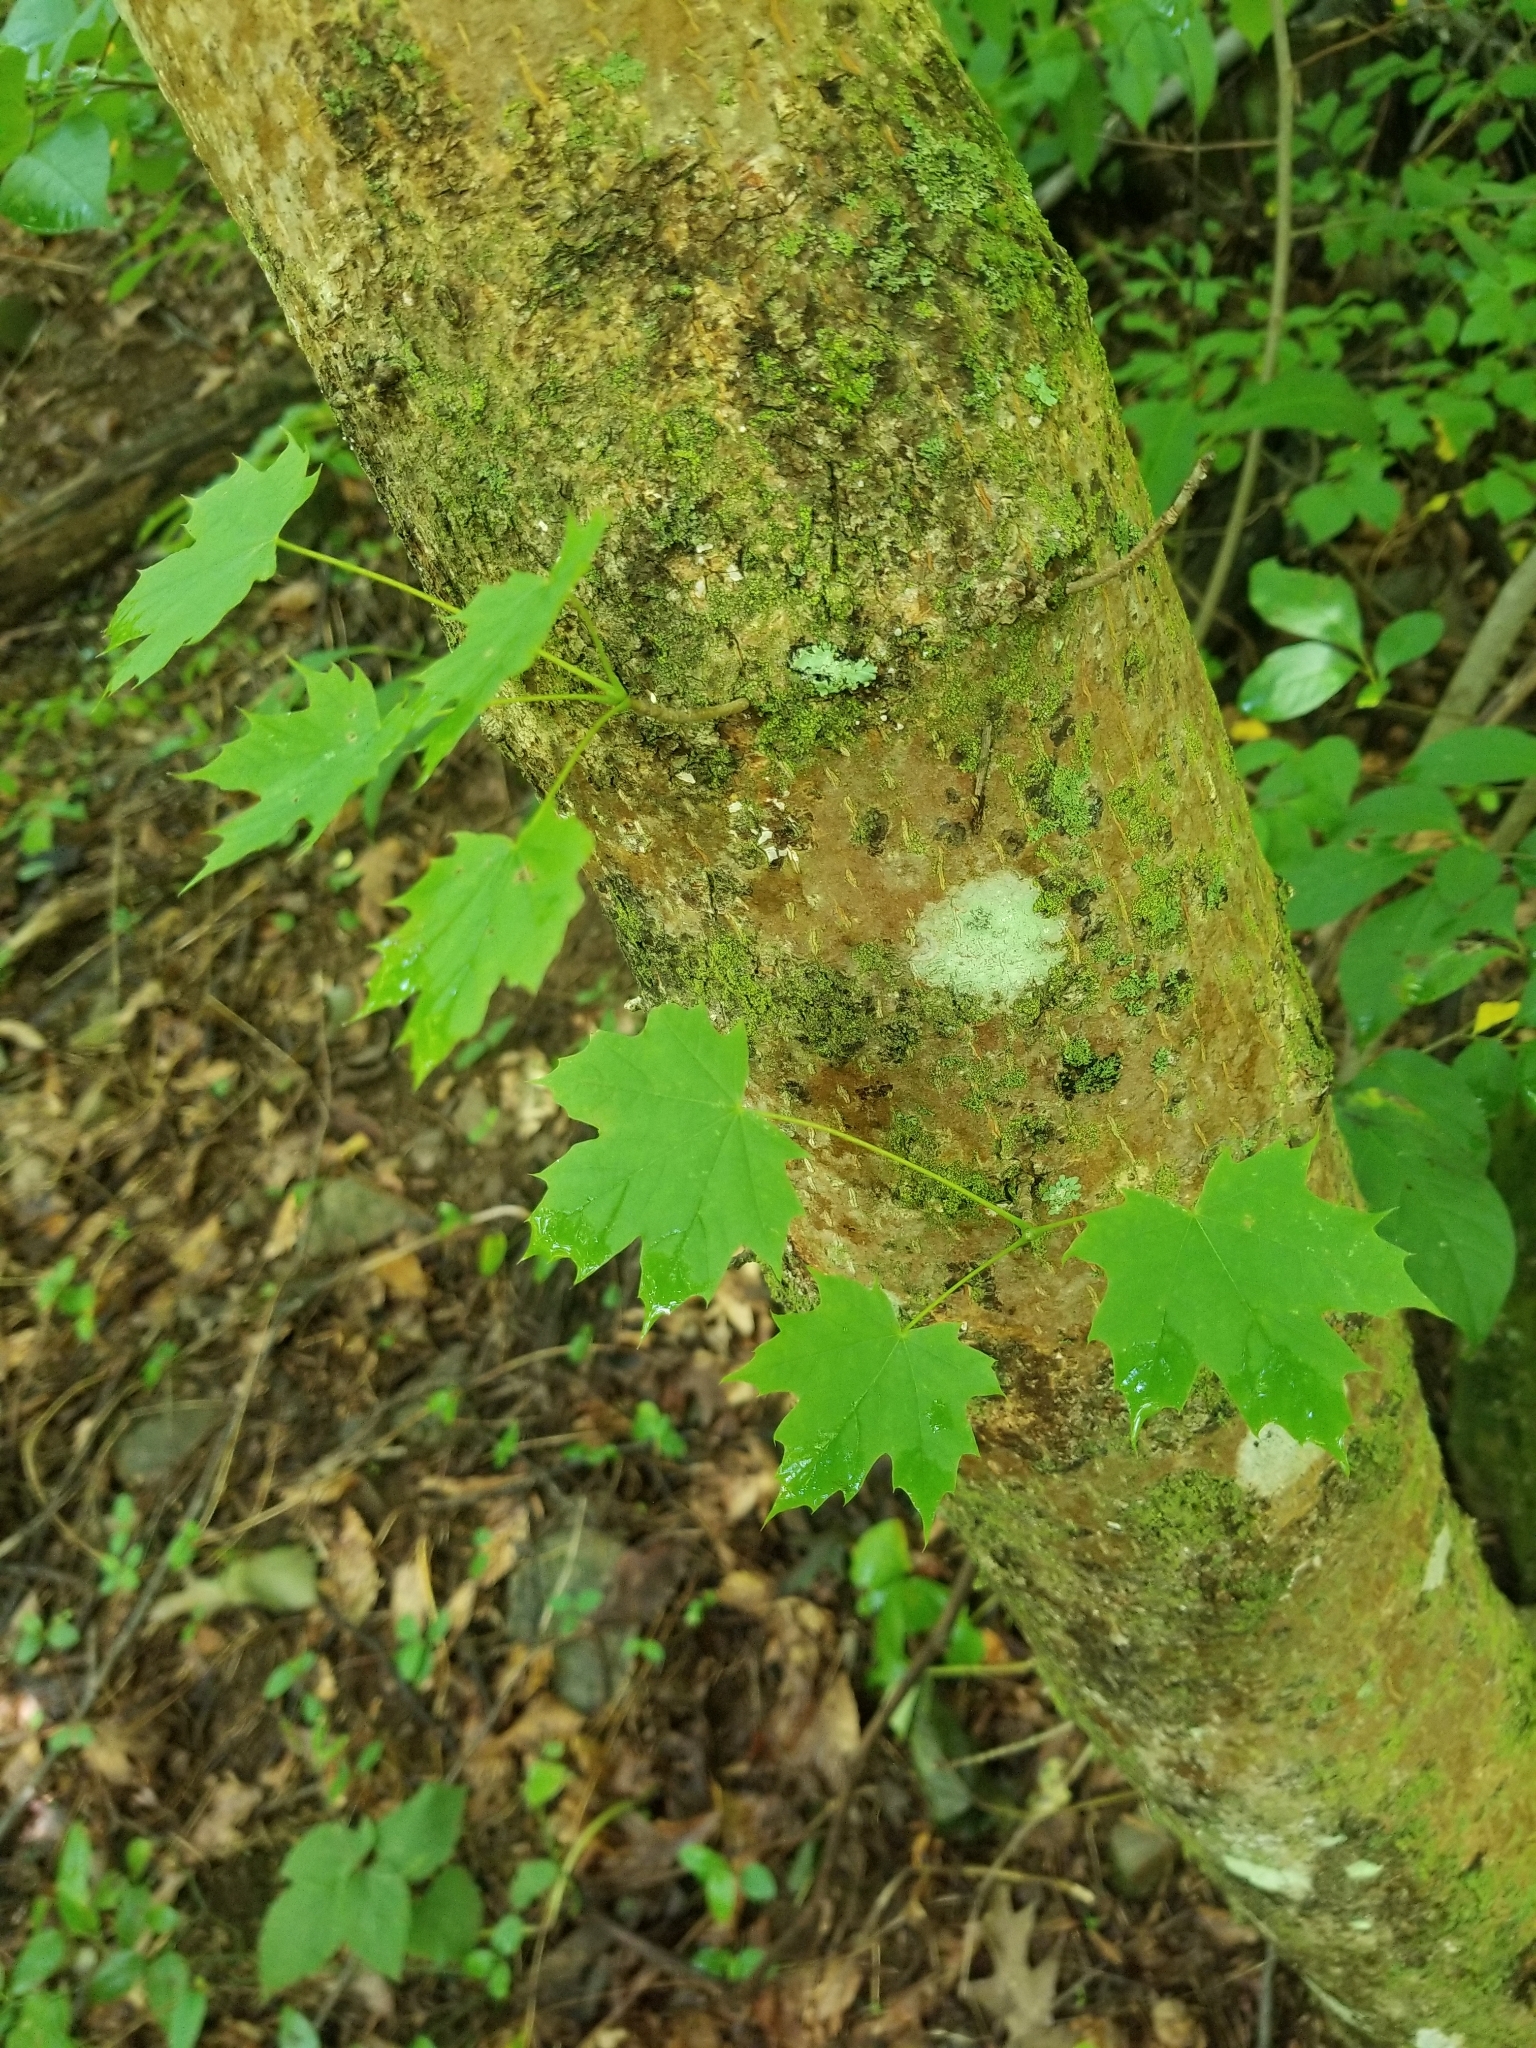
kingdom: Plantae
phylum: Tracheophyta
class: Magnoliopsida
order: Sapindales
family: Sapindaceae
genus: Acer
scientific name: Acer platanoides
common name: Norway maple
